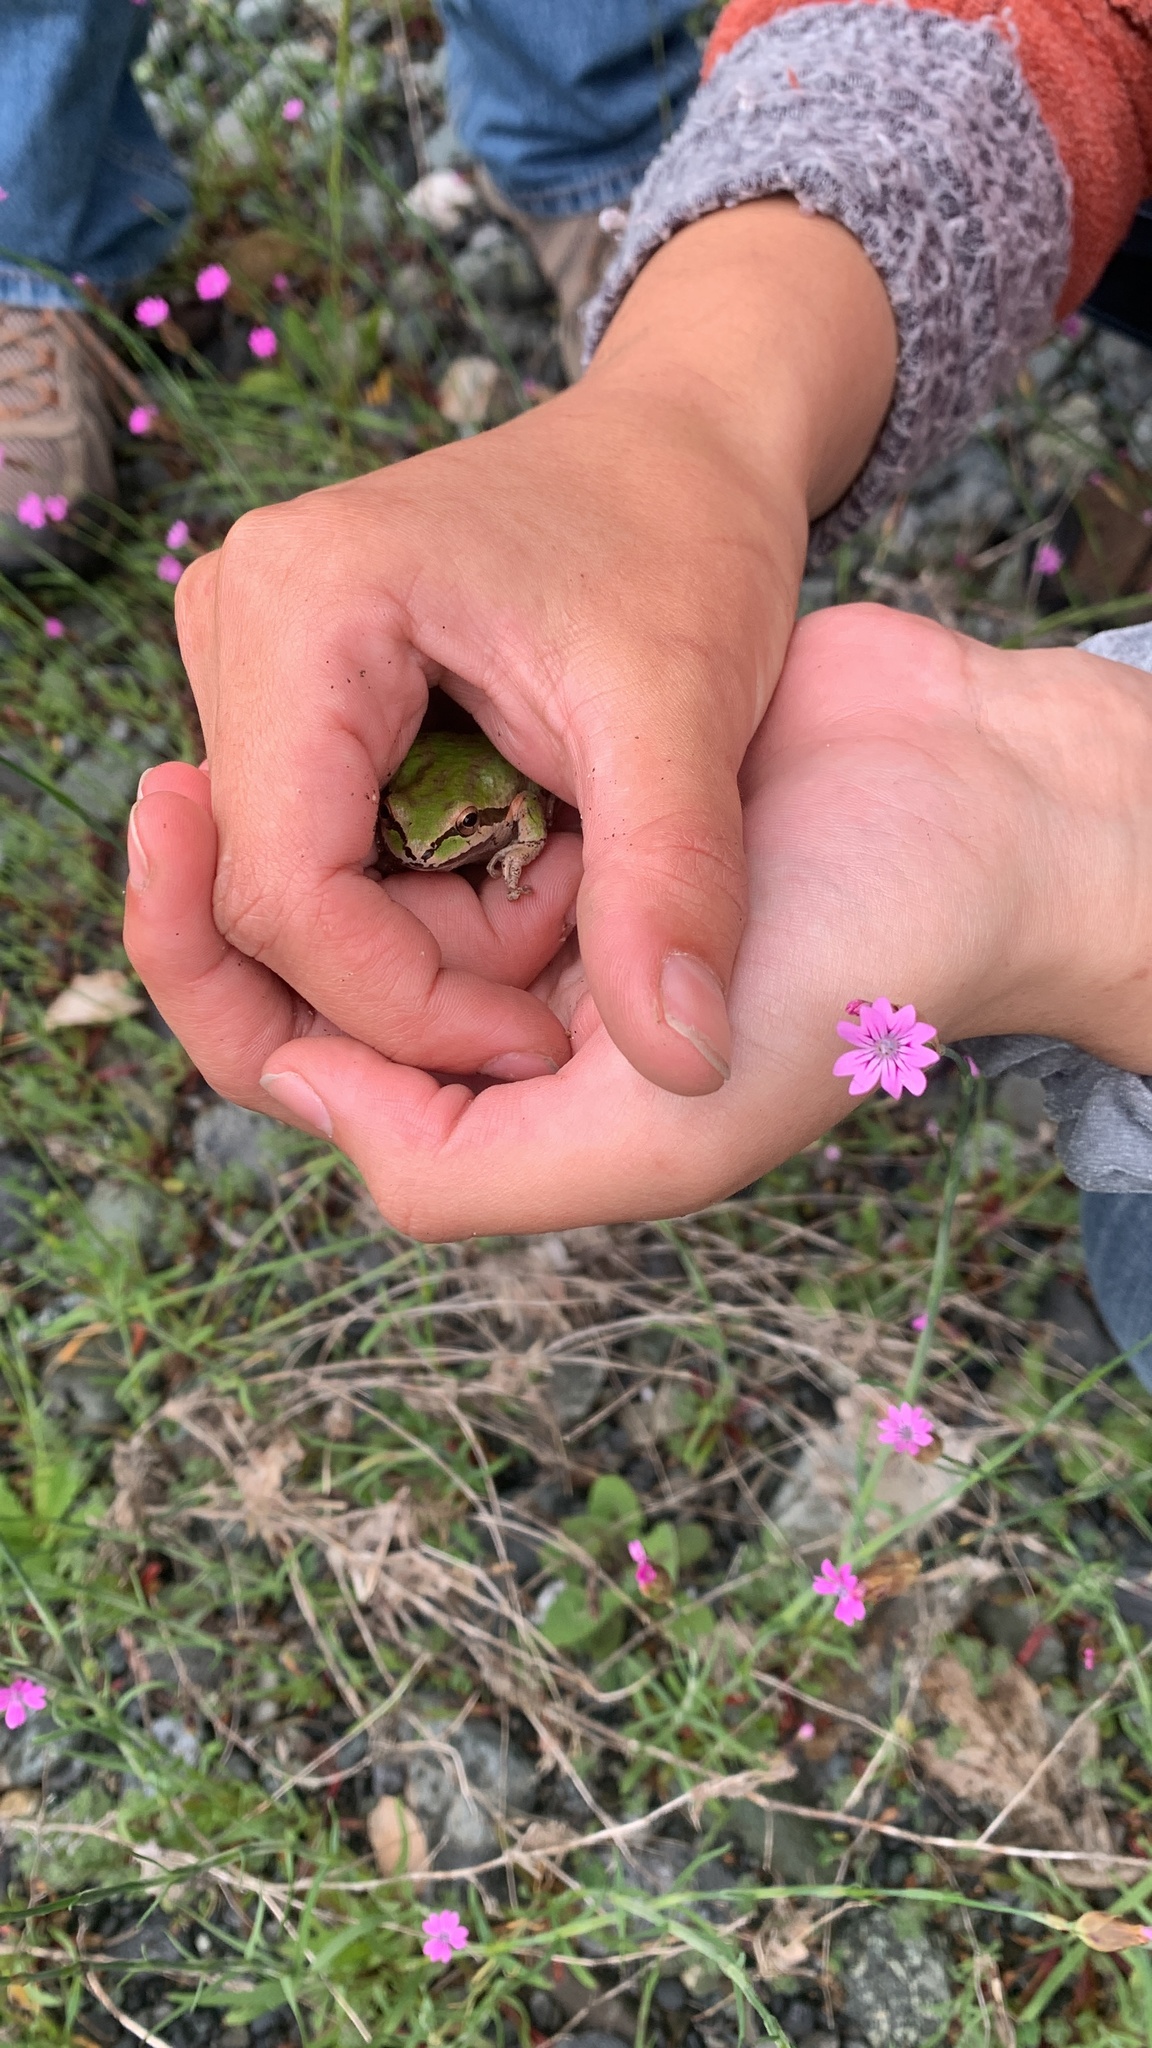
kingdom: Animalia
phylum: Chordata
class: Amphibia
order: Anura
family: Hylidae
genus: Pseudacris
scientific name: Pseudacris regilla
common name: Pacific chorus frog
